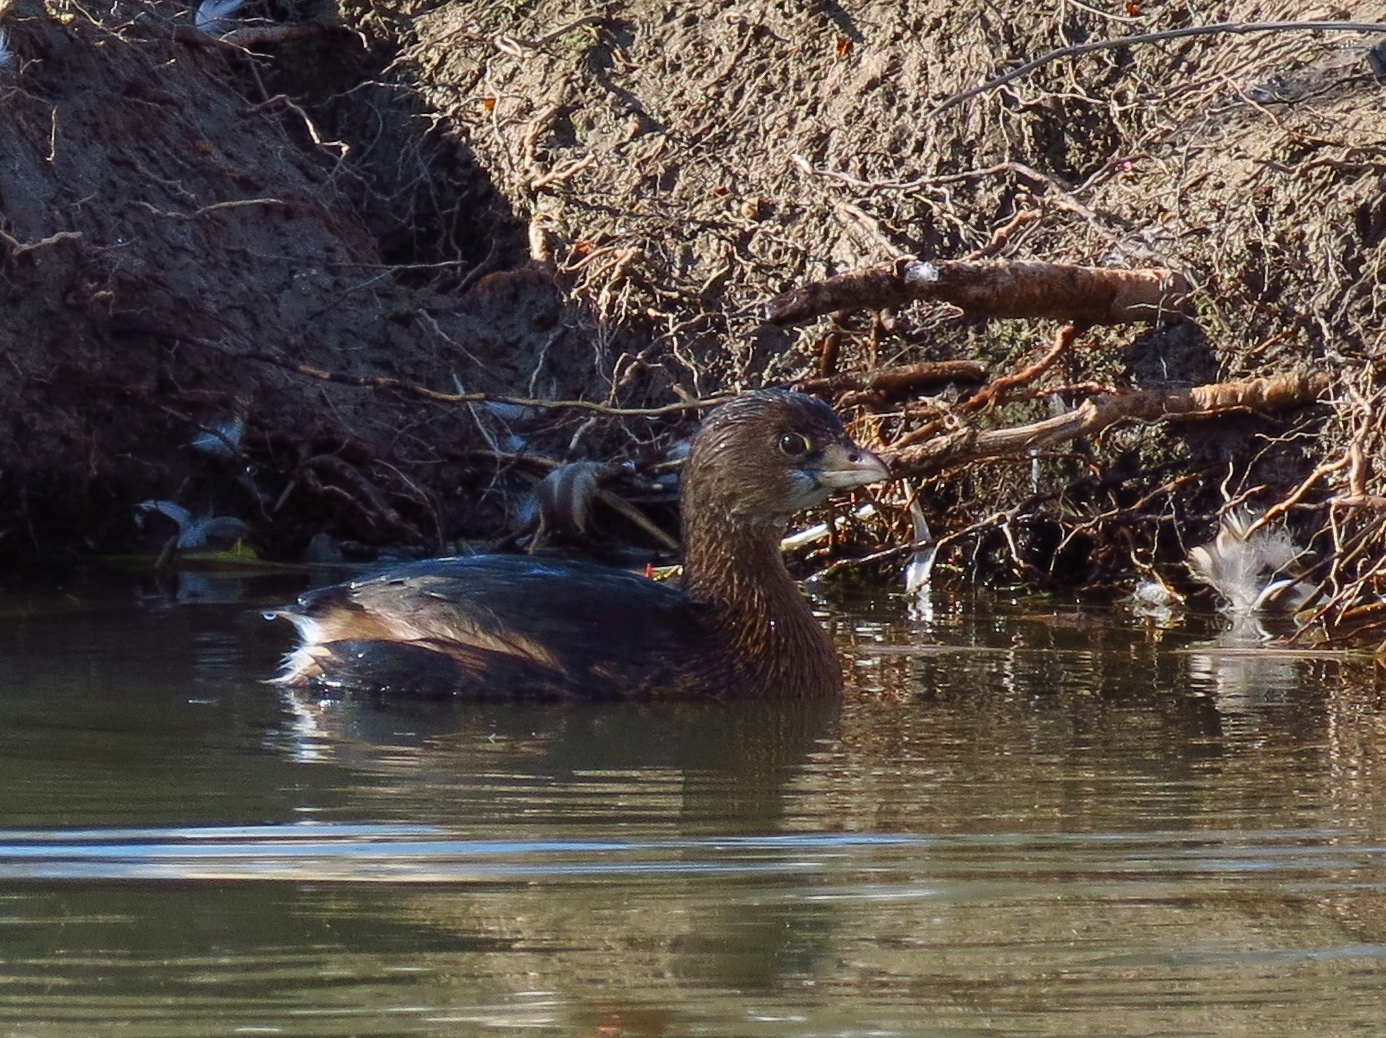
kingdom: Animalia
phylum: Chordata
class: Aves
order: Podicipediformes
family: Podicipedidae
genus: Podilymbus
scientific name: Podilymbus podiceps
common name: Pied-billed grebe
